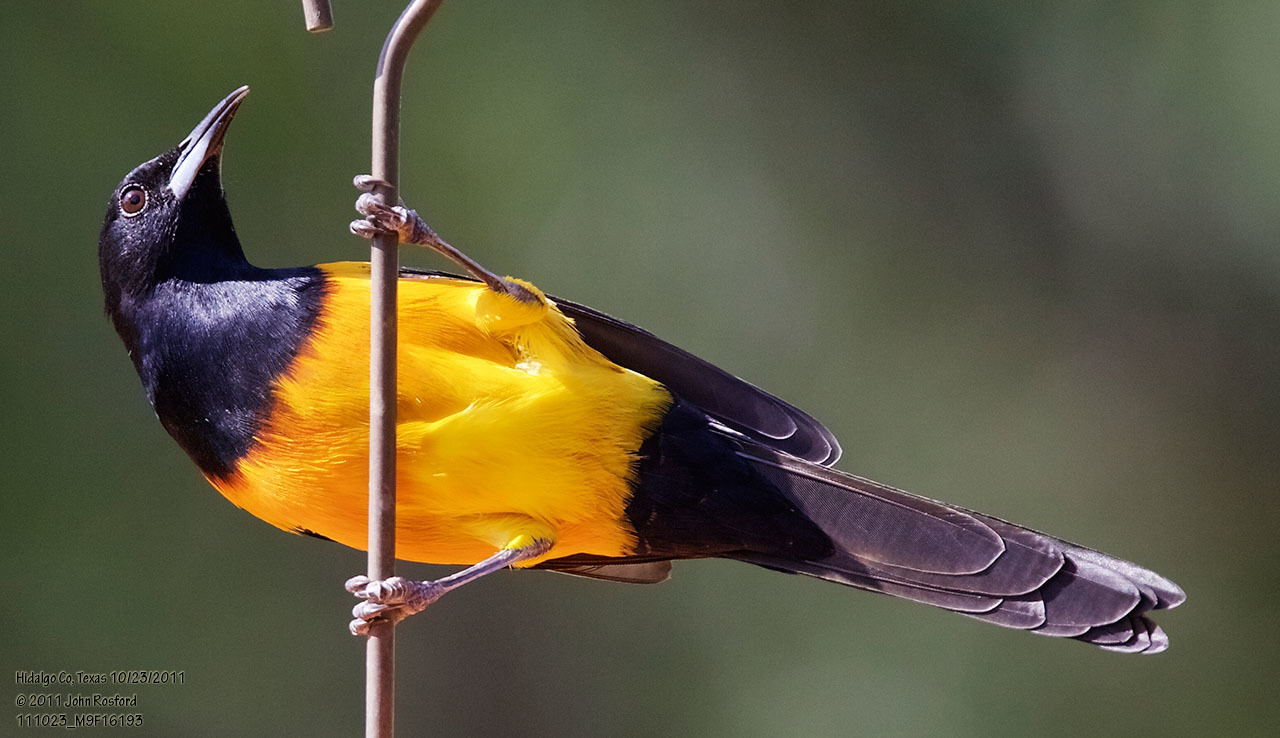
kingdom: Animalia
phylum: Chordata
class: Aves
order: Passeriformes
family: Icteridae
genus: Icterus
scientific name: Icterus wagleri
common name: Black-vented oriole
